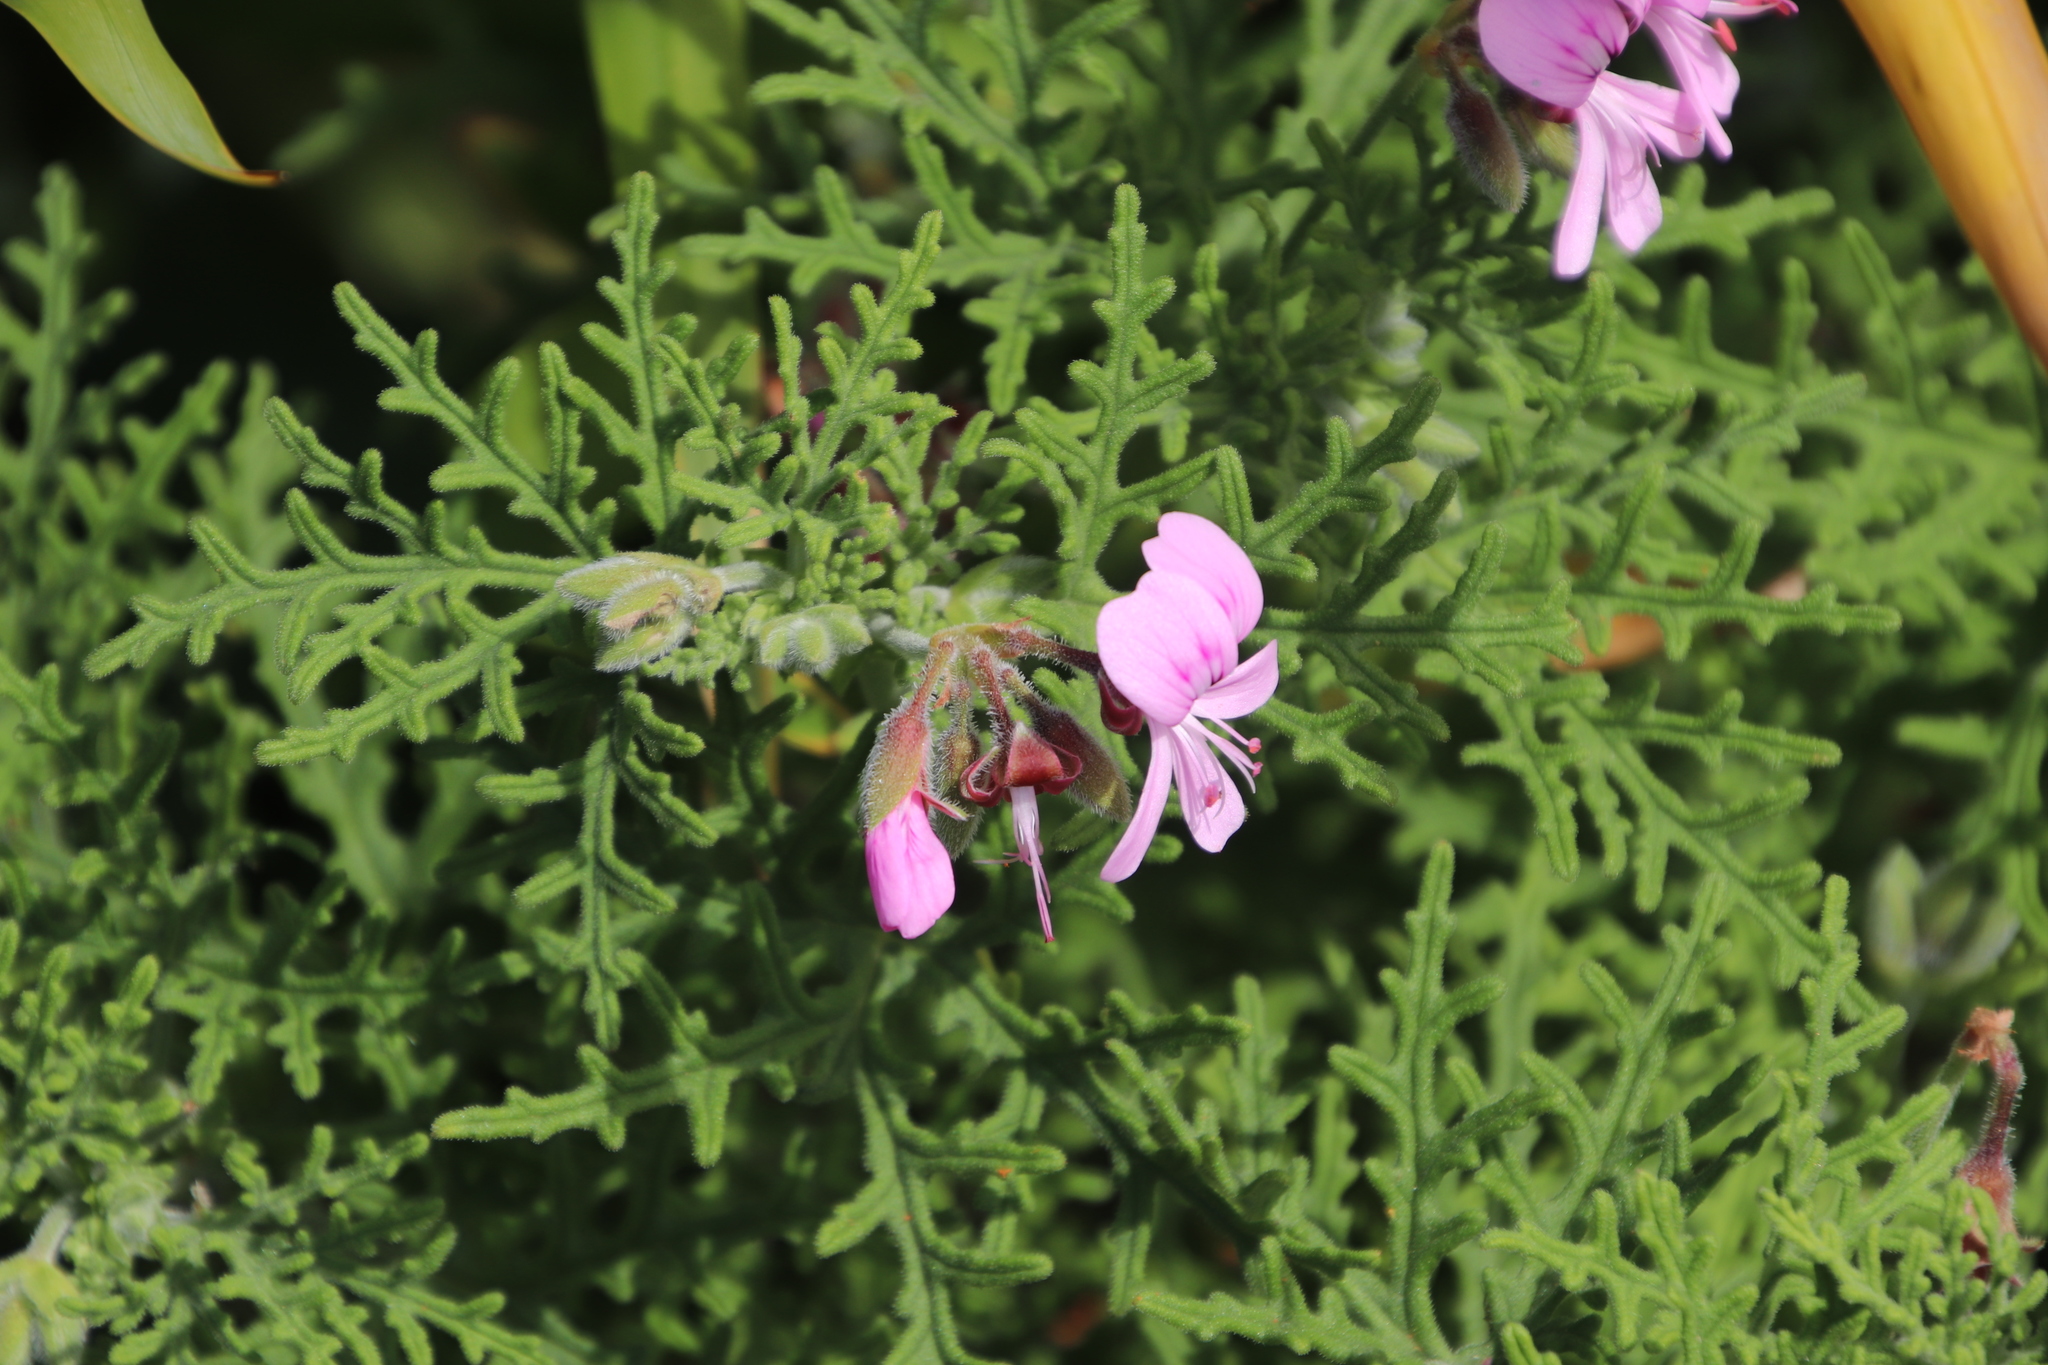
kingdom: Plantae
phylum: Tracheophyta
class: Magnoliopsida
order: Geraniales
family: Geraniaceae
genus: Pelargonium
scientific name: Pelargonium radens
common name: Rasp-leaf pelargonium
